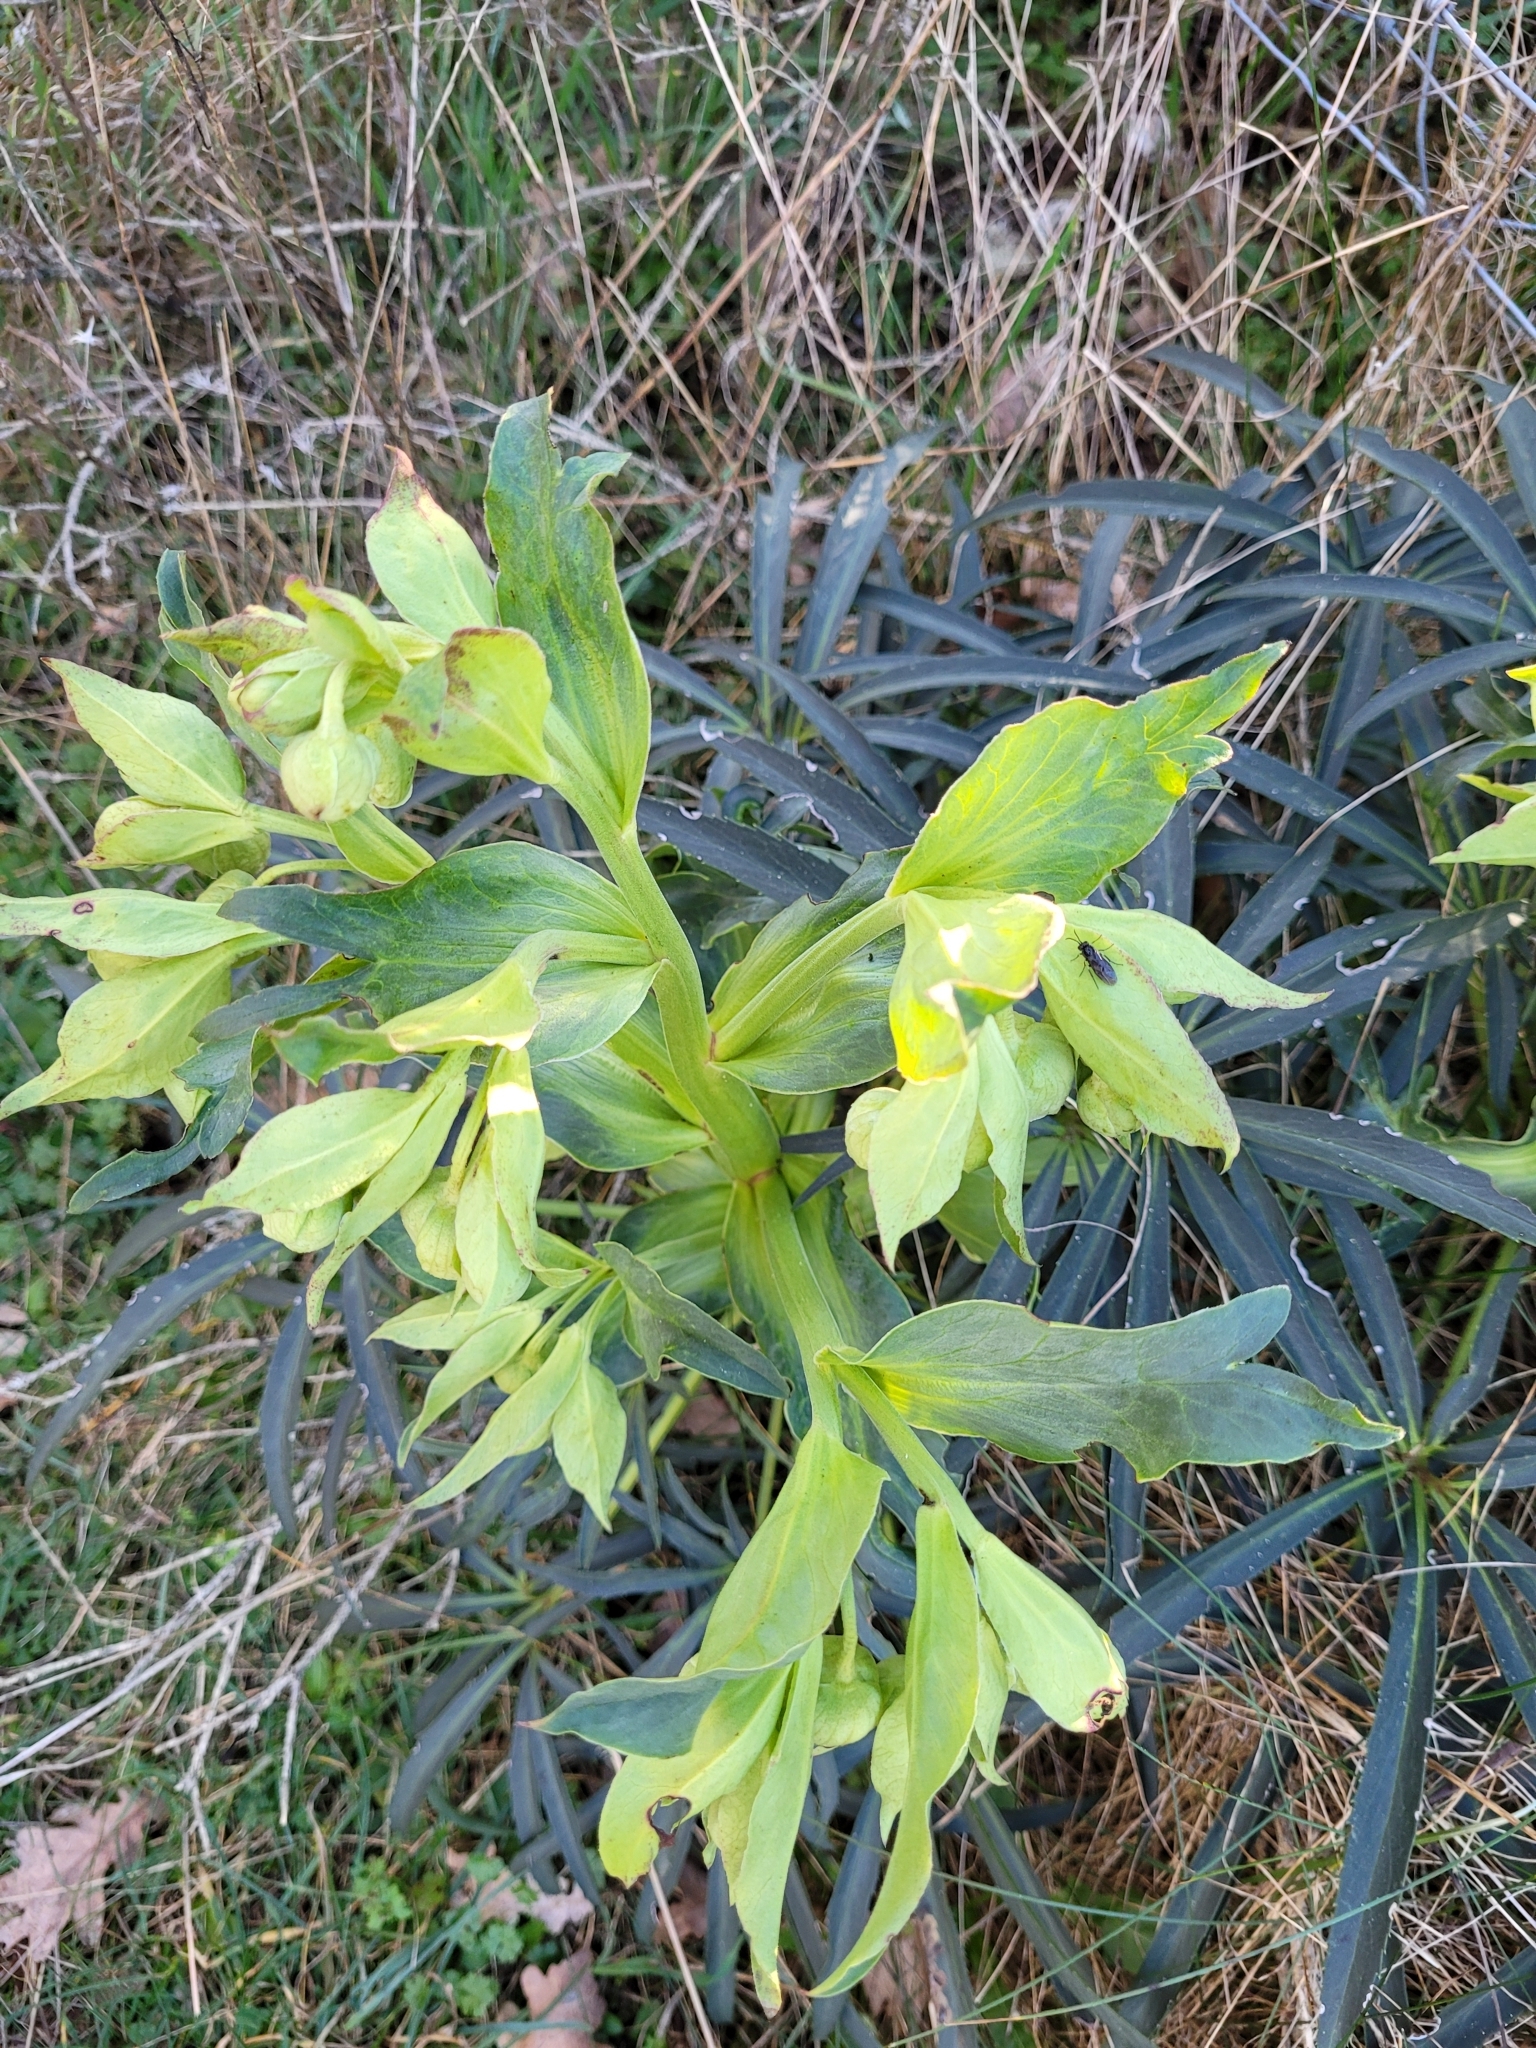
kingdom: Plantae
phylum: Tracheophyta
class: Magnoliopsida
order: Ranunculales
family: Ranunculaceae
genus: Helleborus
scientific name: Helleborus foetidus
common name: Stinking hellebore
